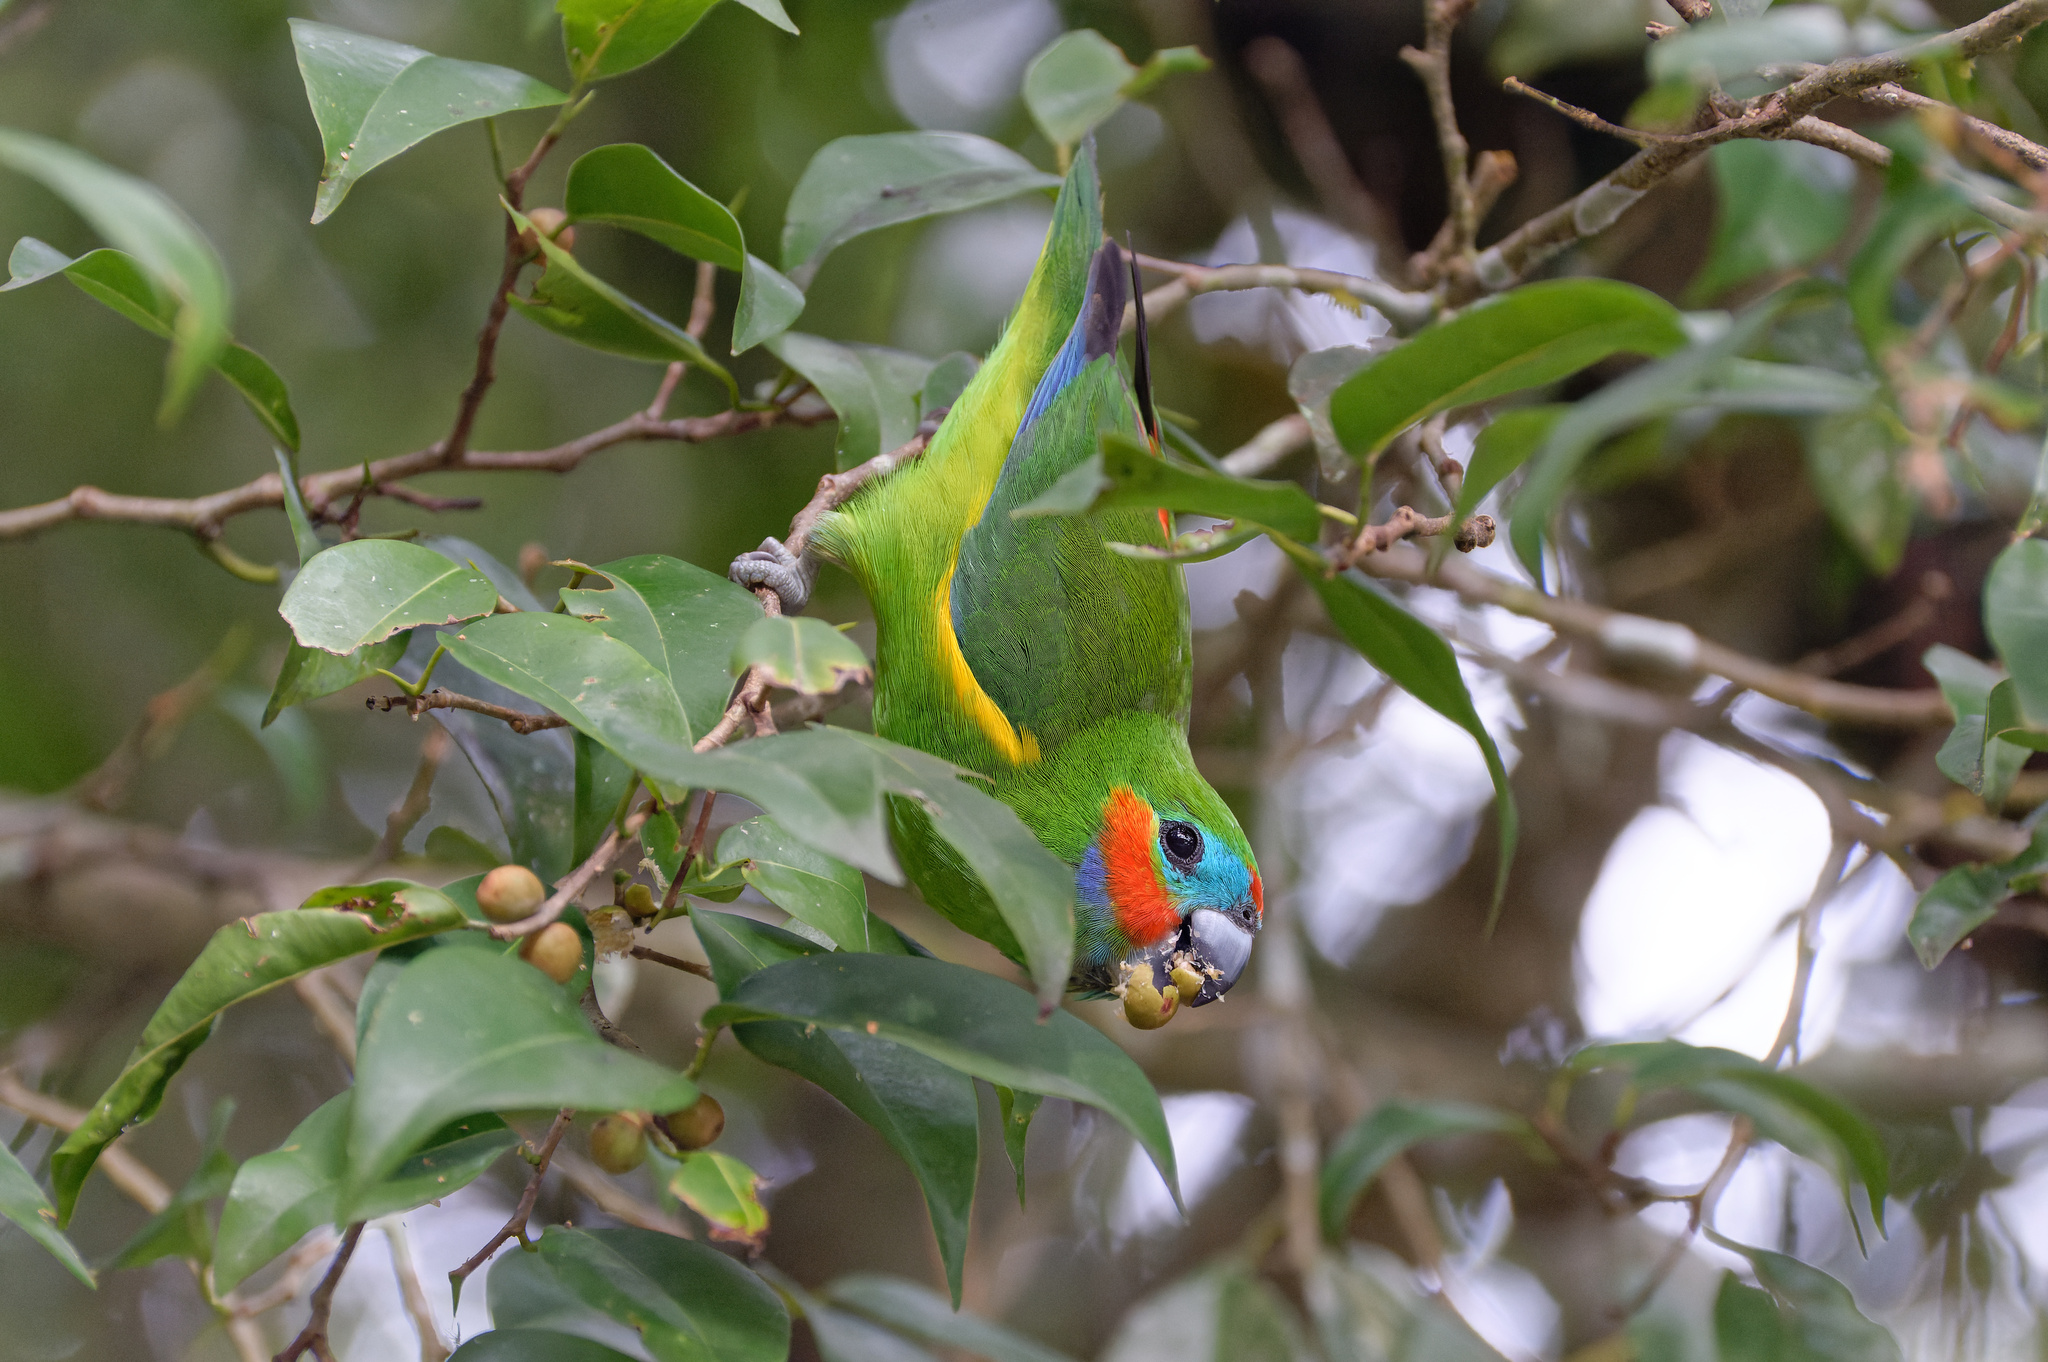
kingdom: Animalia
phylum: Chordata
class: Aves
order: Psittaciformes
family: Psittacidae
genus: Cyclopsitta
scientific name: Cyclopsitta diophthalma
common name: Double-eyed fig parrot
